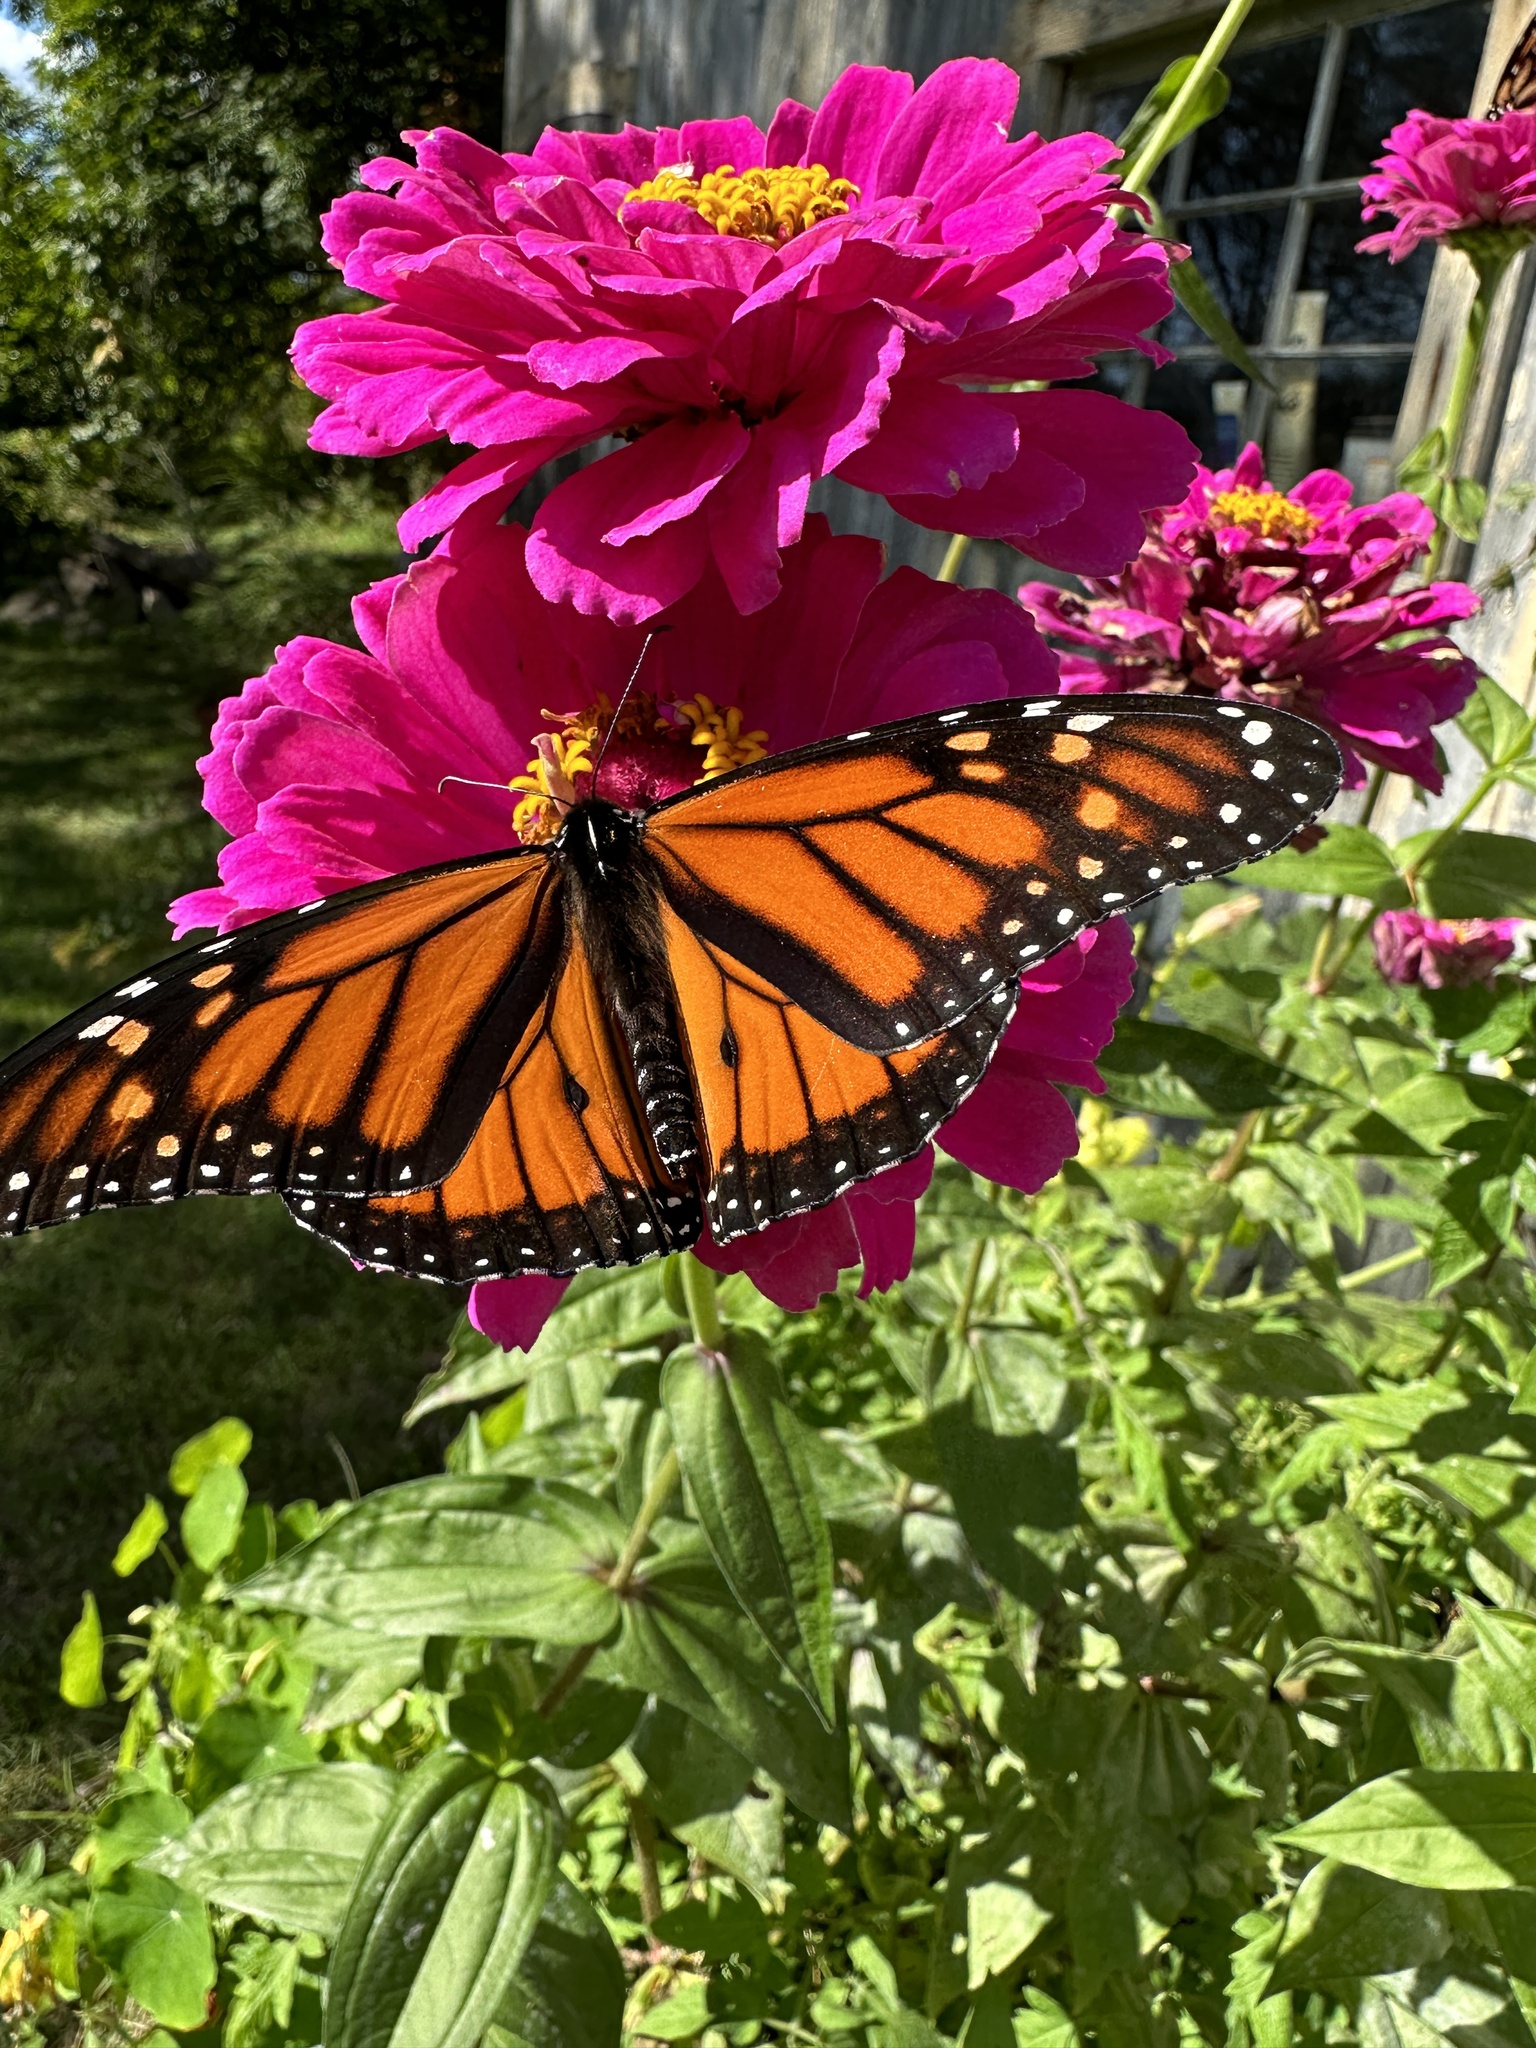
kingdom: Animalia
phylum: Arthropoda
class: Insecta
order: Lepidoptera
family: Nymphalidae
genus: Danaus
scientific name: Danaus plexippus
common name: Monarch
